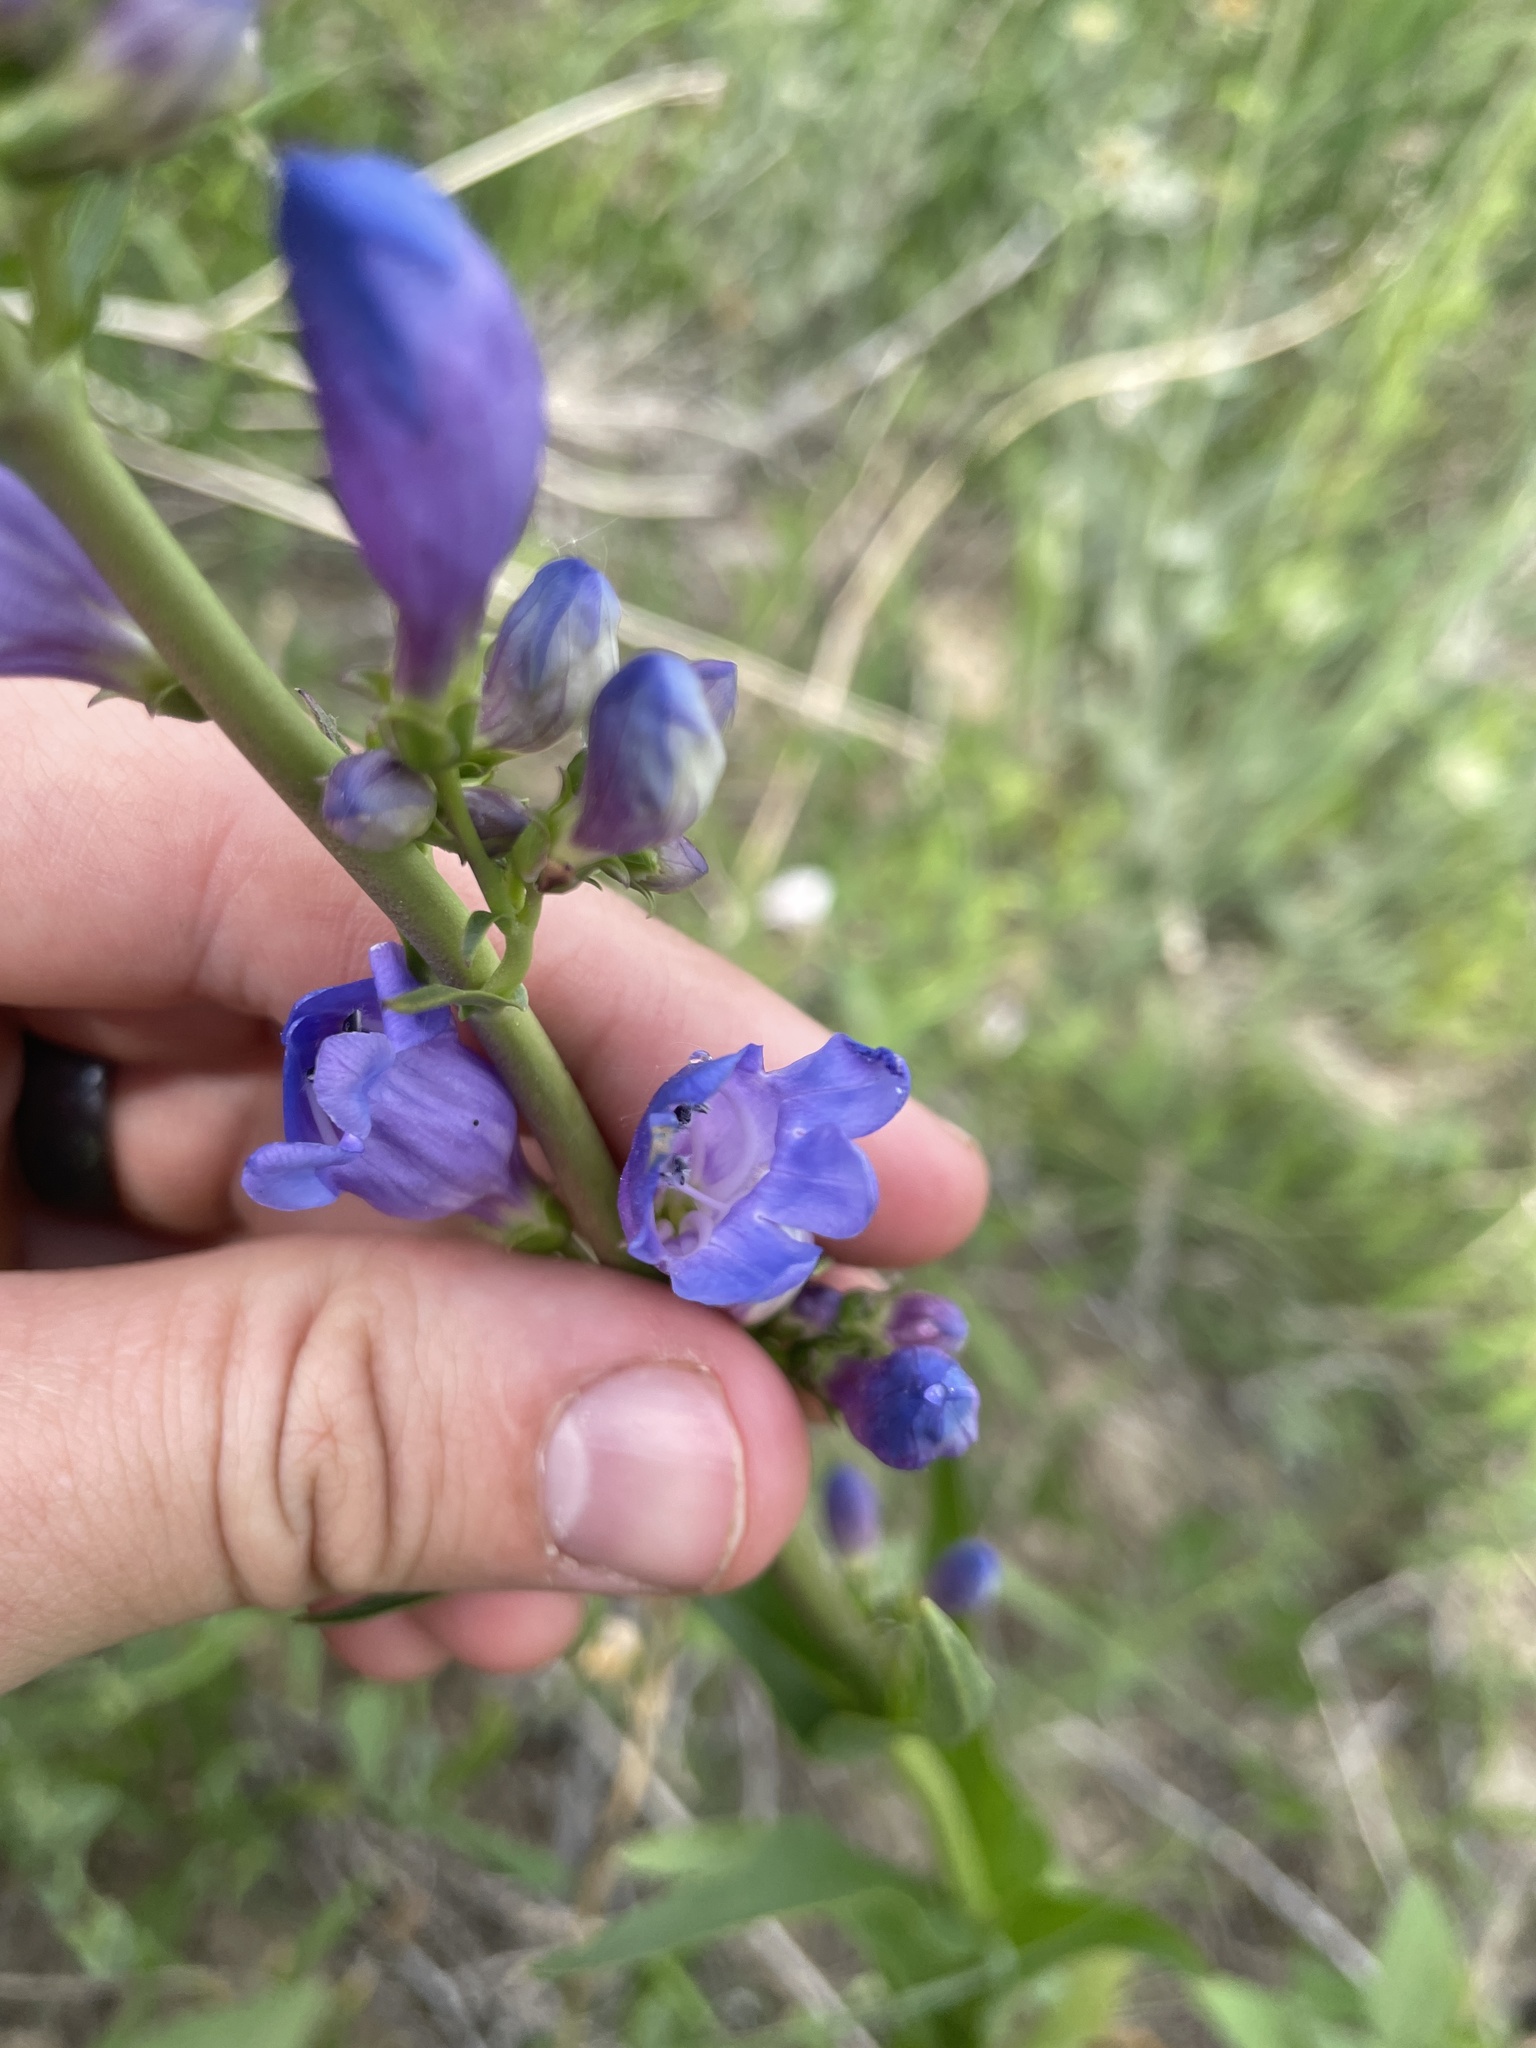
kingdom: Plantae
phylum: Tracheophyta
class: Magnoliopsida
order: Lamiales
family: Plantaginaceae
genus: Penstemon
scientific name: Penstemon strictus
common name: Rocky mountain penstemon
